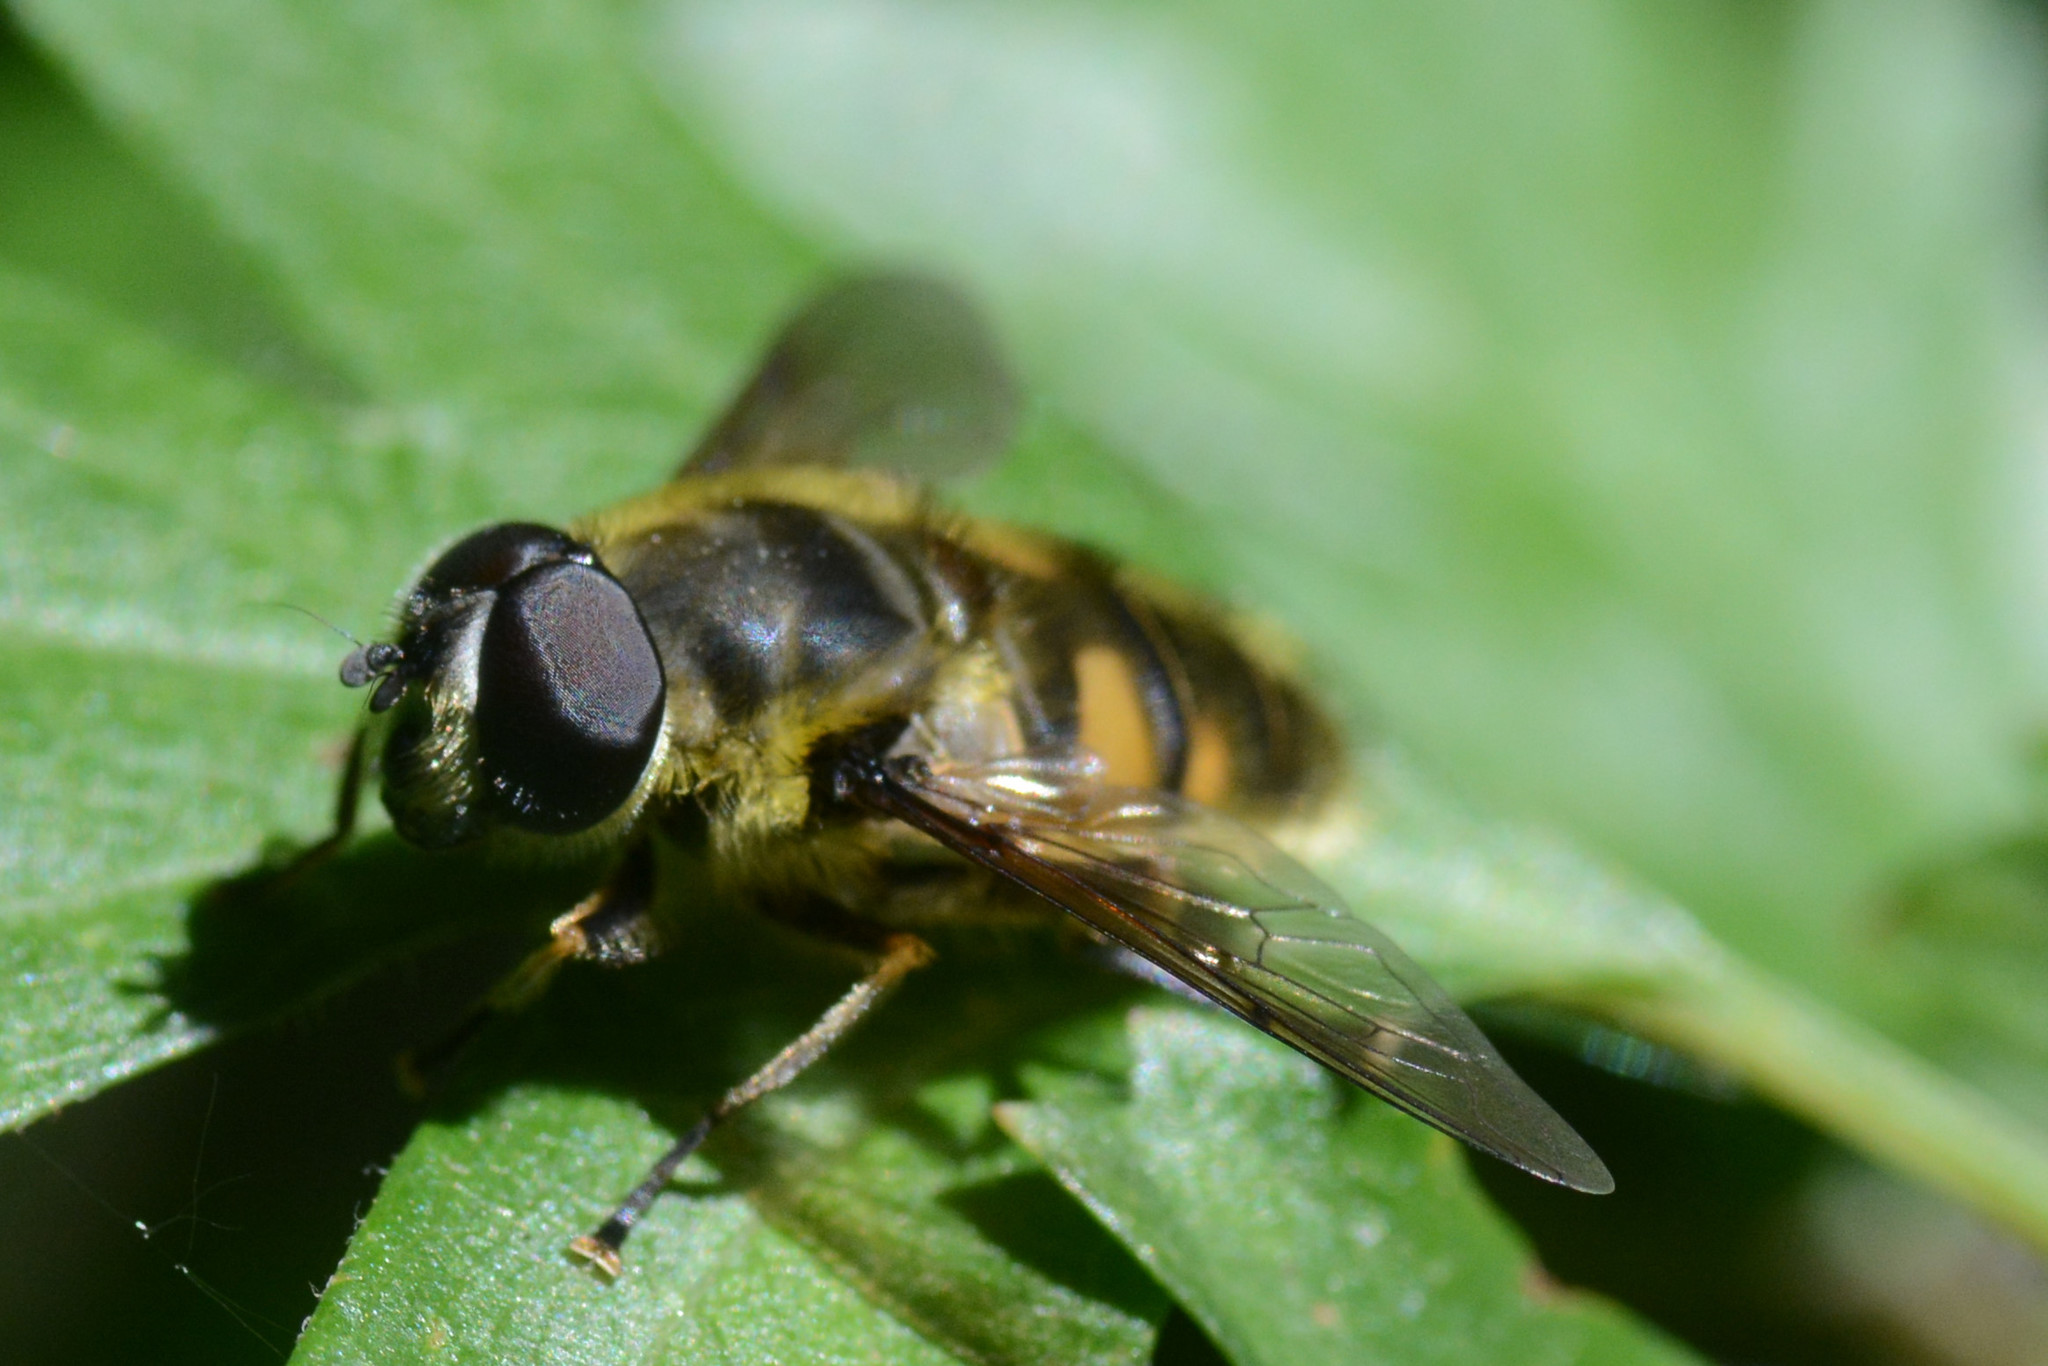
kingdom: Animalia
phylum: Arthropoda
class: Insecta
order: Diptera
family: Syrphidae
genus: Myathropa
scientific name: Myathropa florea
